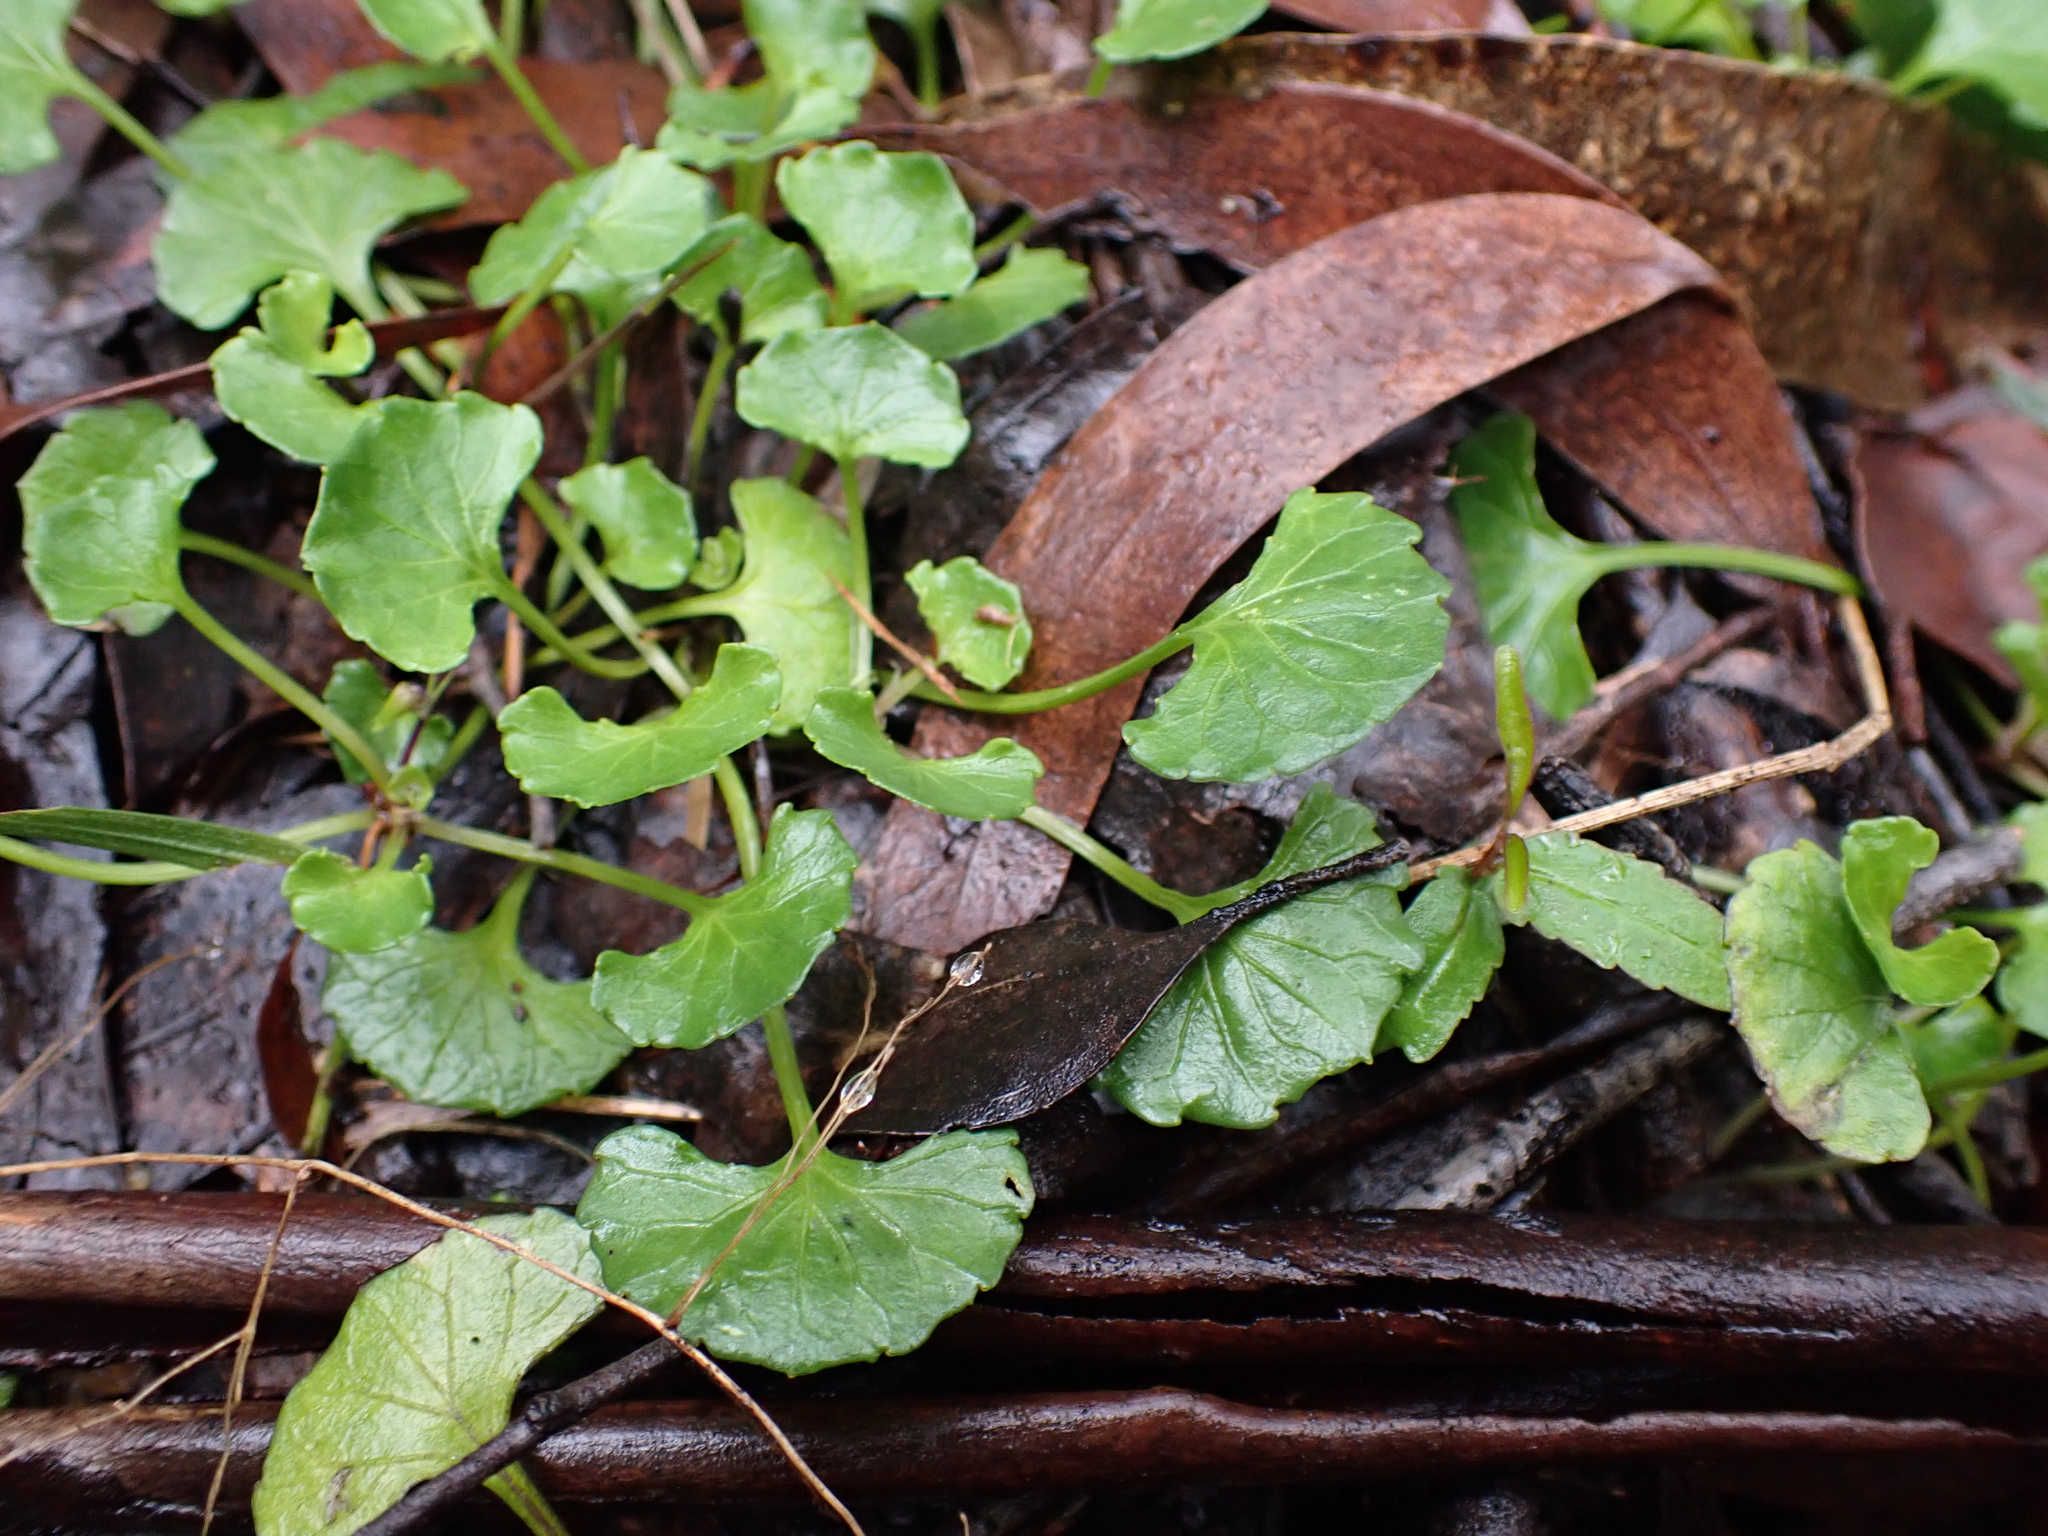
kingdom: Plantae
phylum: Tracheophyta
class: Magnoliopsida
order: Malpighiales
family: Violaceae
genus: Viola
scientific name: Viola hederacea
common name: Australian violet
